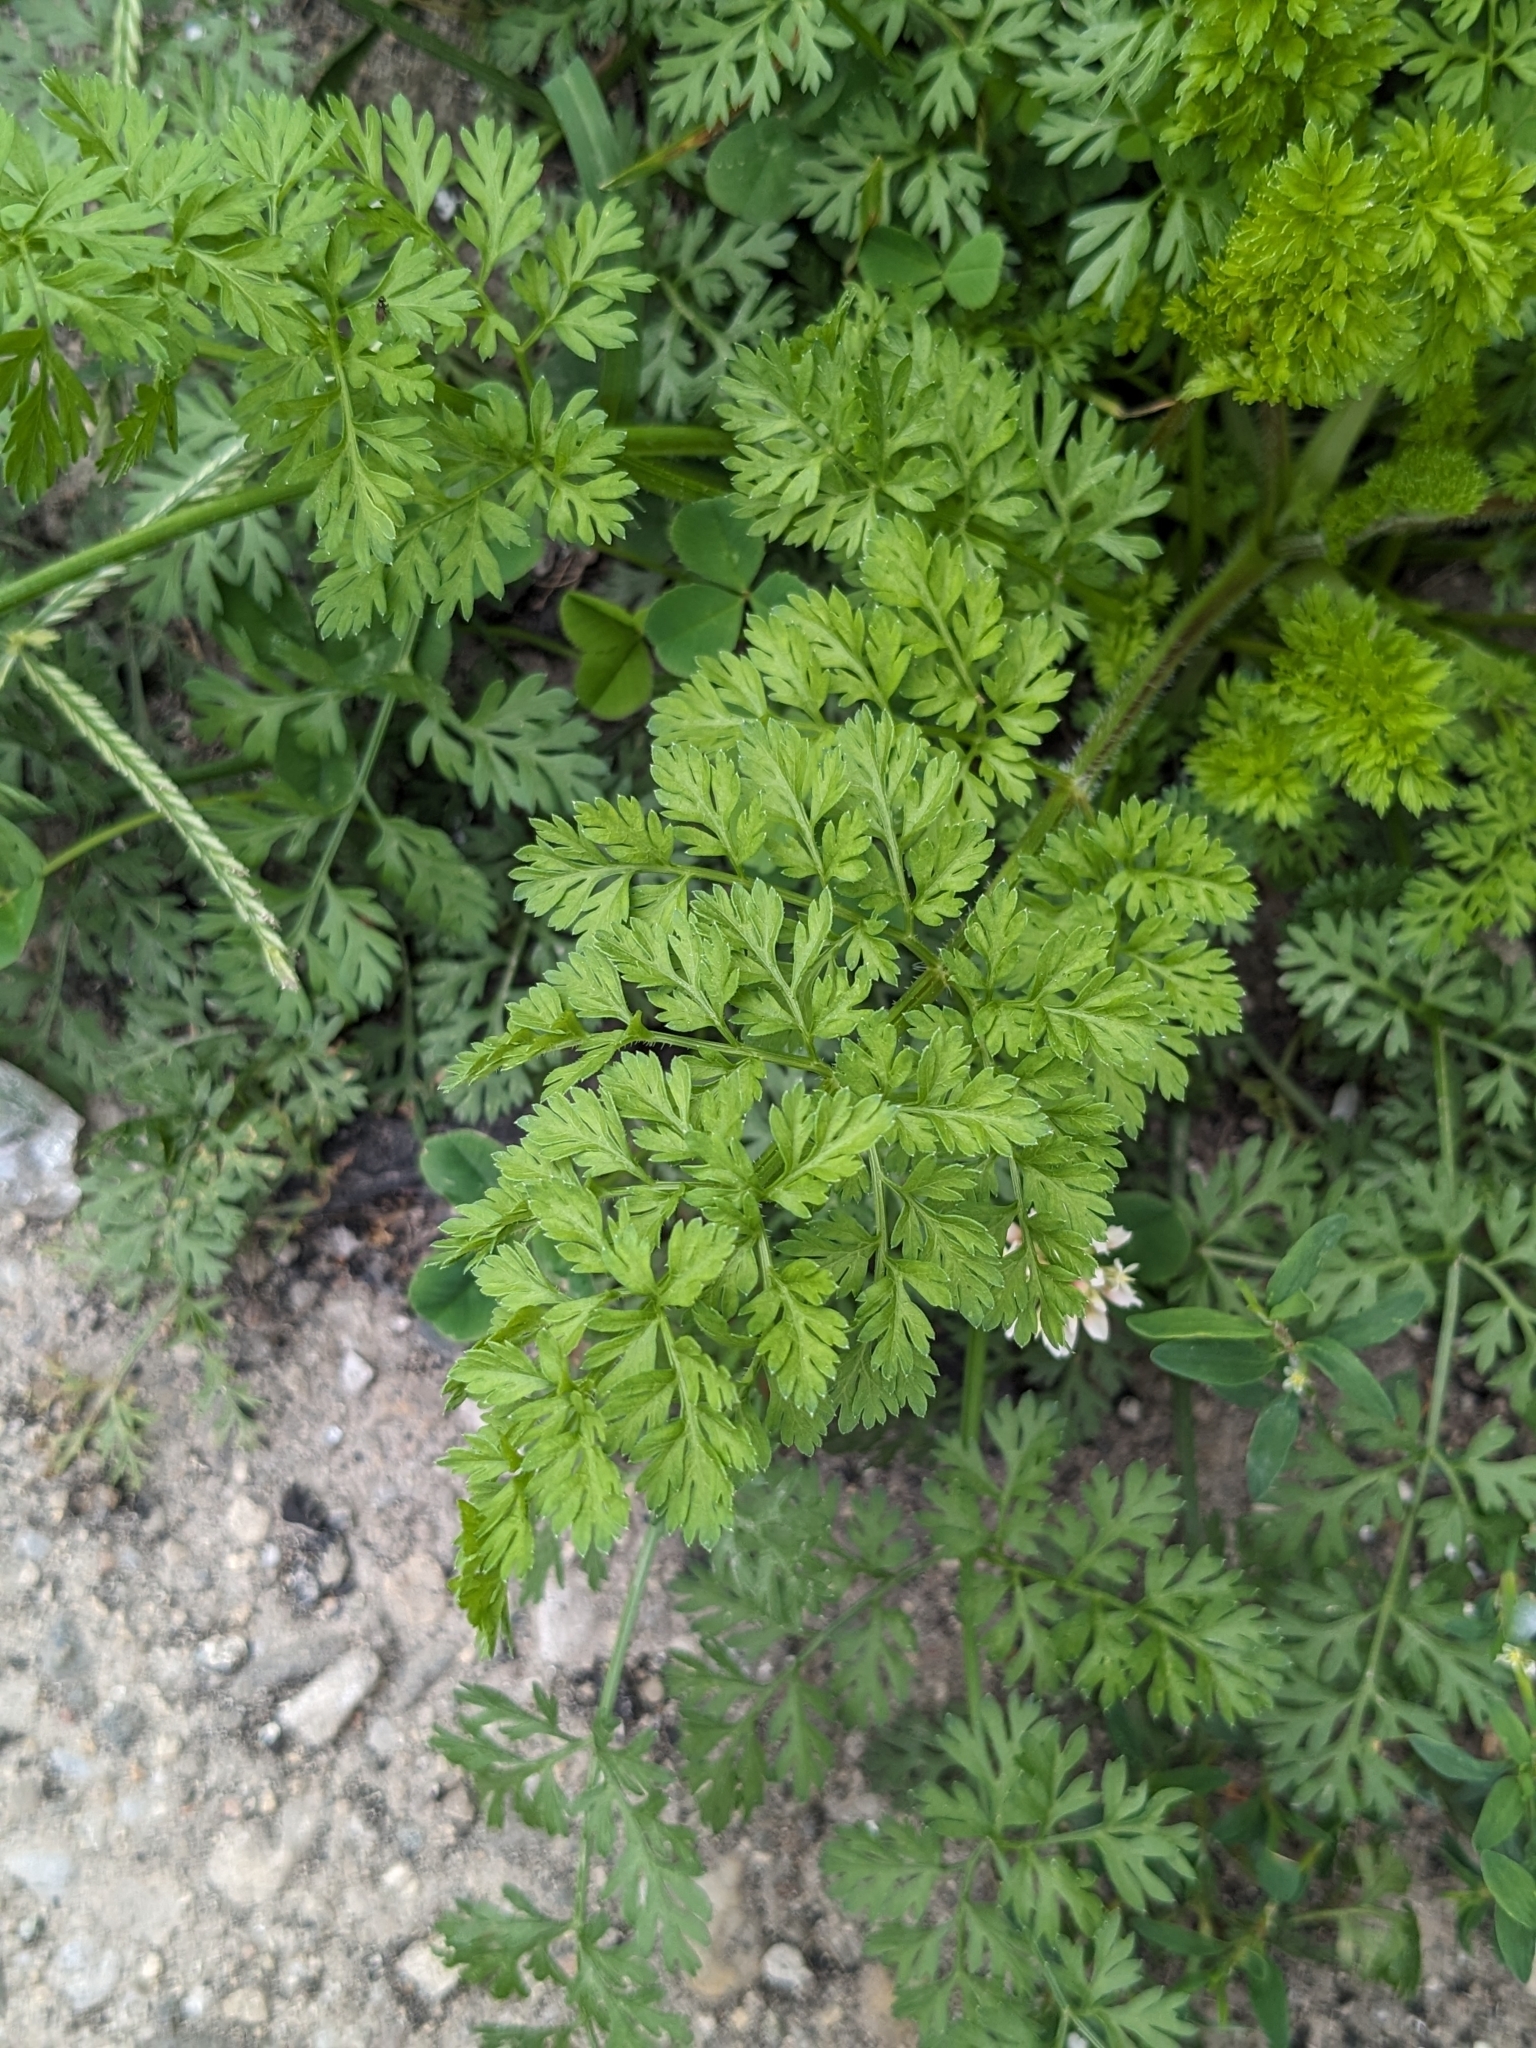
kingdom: Plantae
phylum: Tracheophyta
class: Magnoliopsida
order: Apiales
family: Apiaceae
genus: Daucus
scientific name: Daucus carota
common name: Wild carrot
